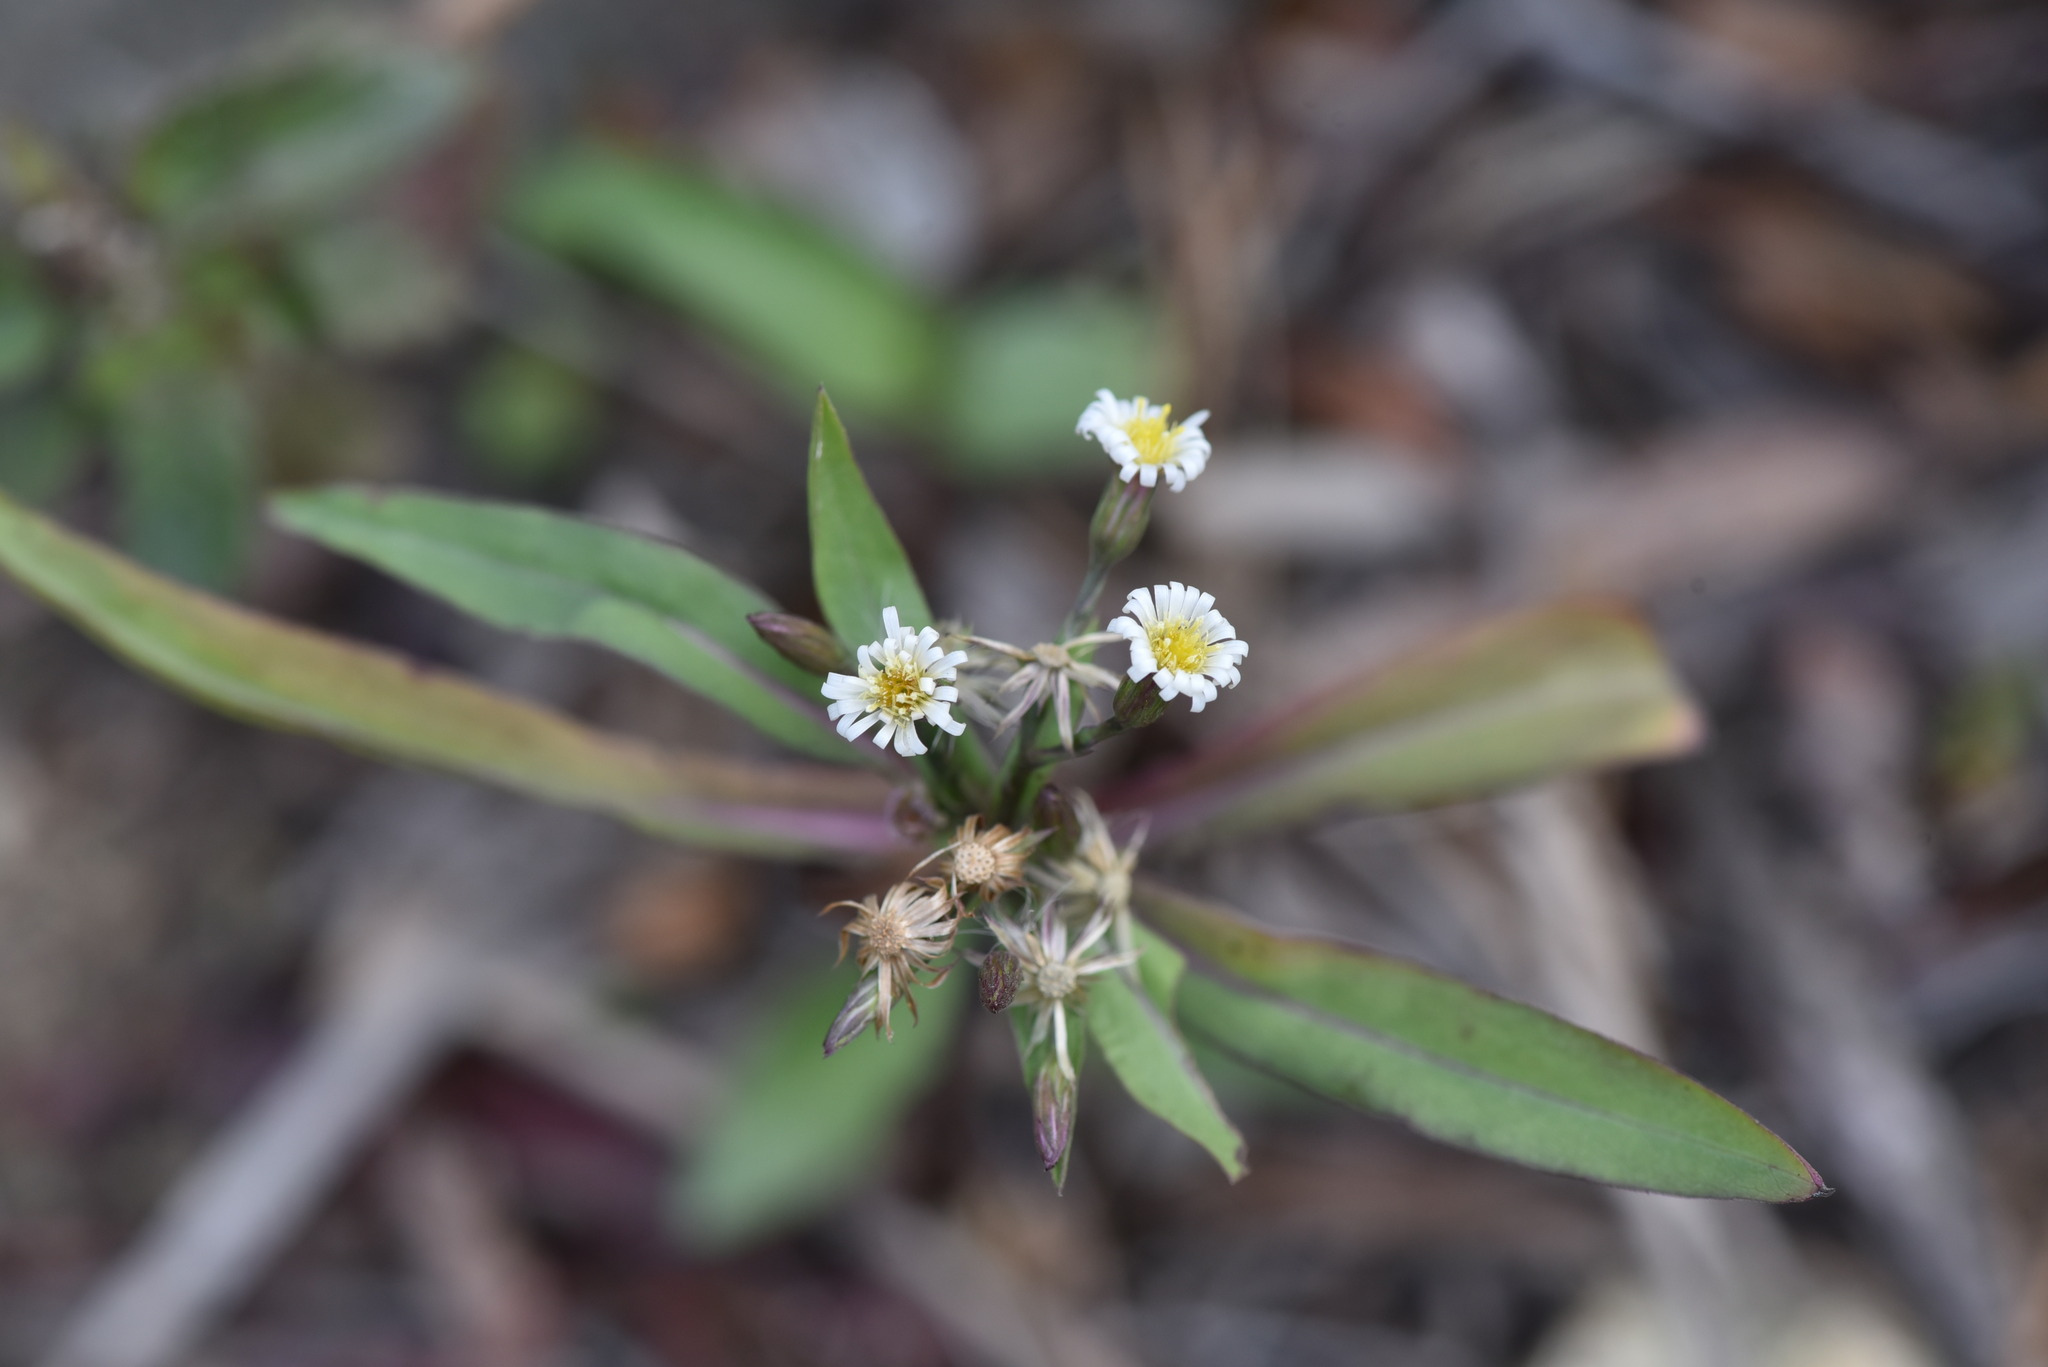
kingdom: Plantae
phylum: Tracheophyta
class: Magnoliopsida
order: Asterales
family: Asteraceae
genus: Symphyotrichum
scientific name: Symphyotrichum subulatum
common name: Annual saltmarsh aster
